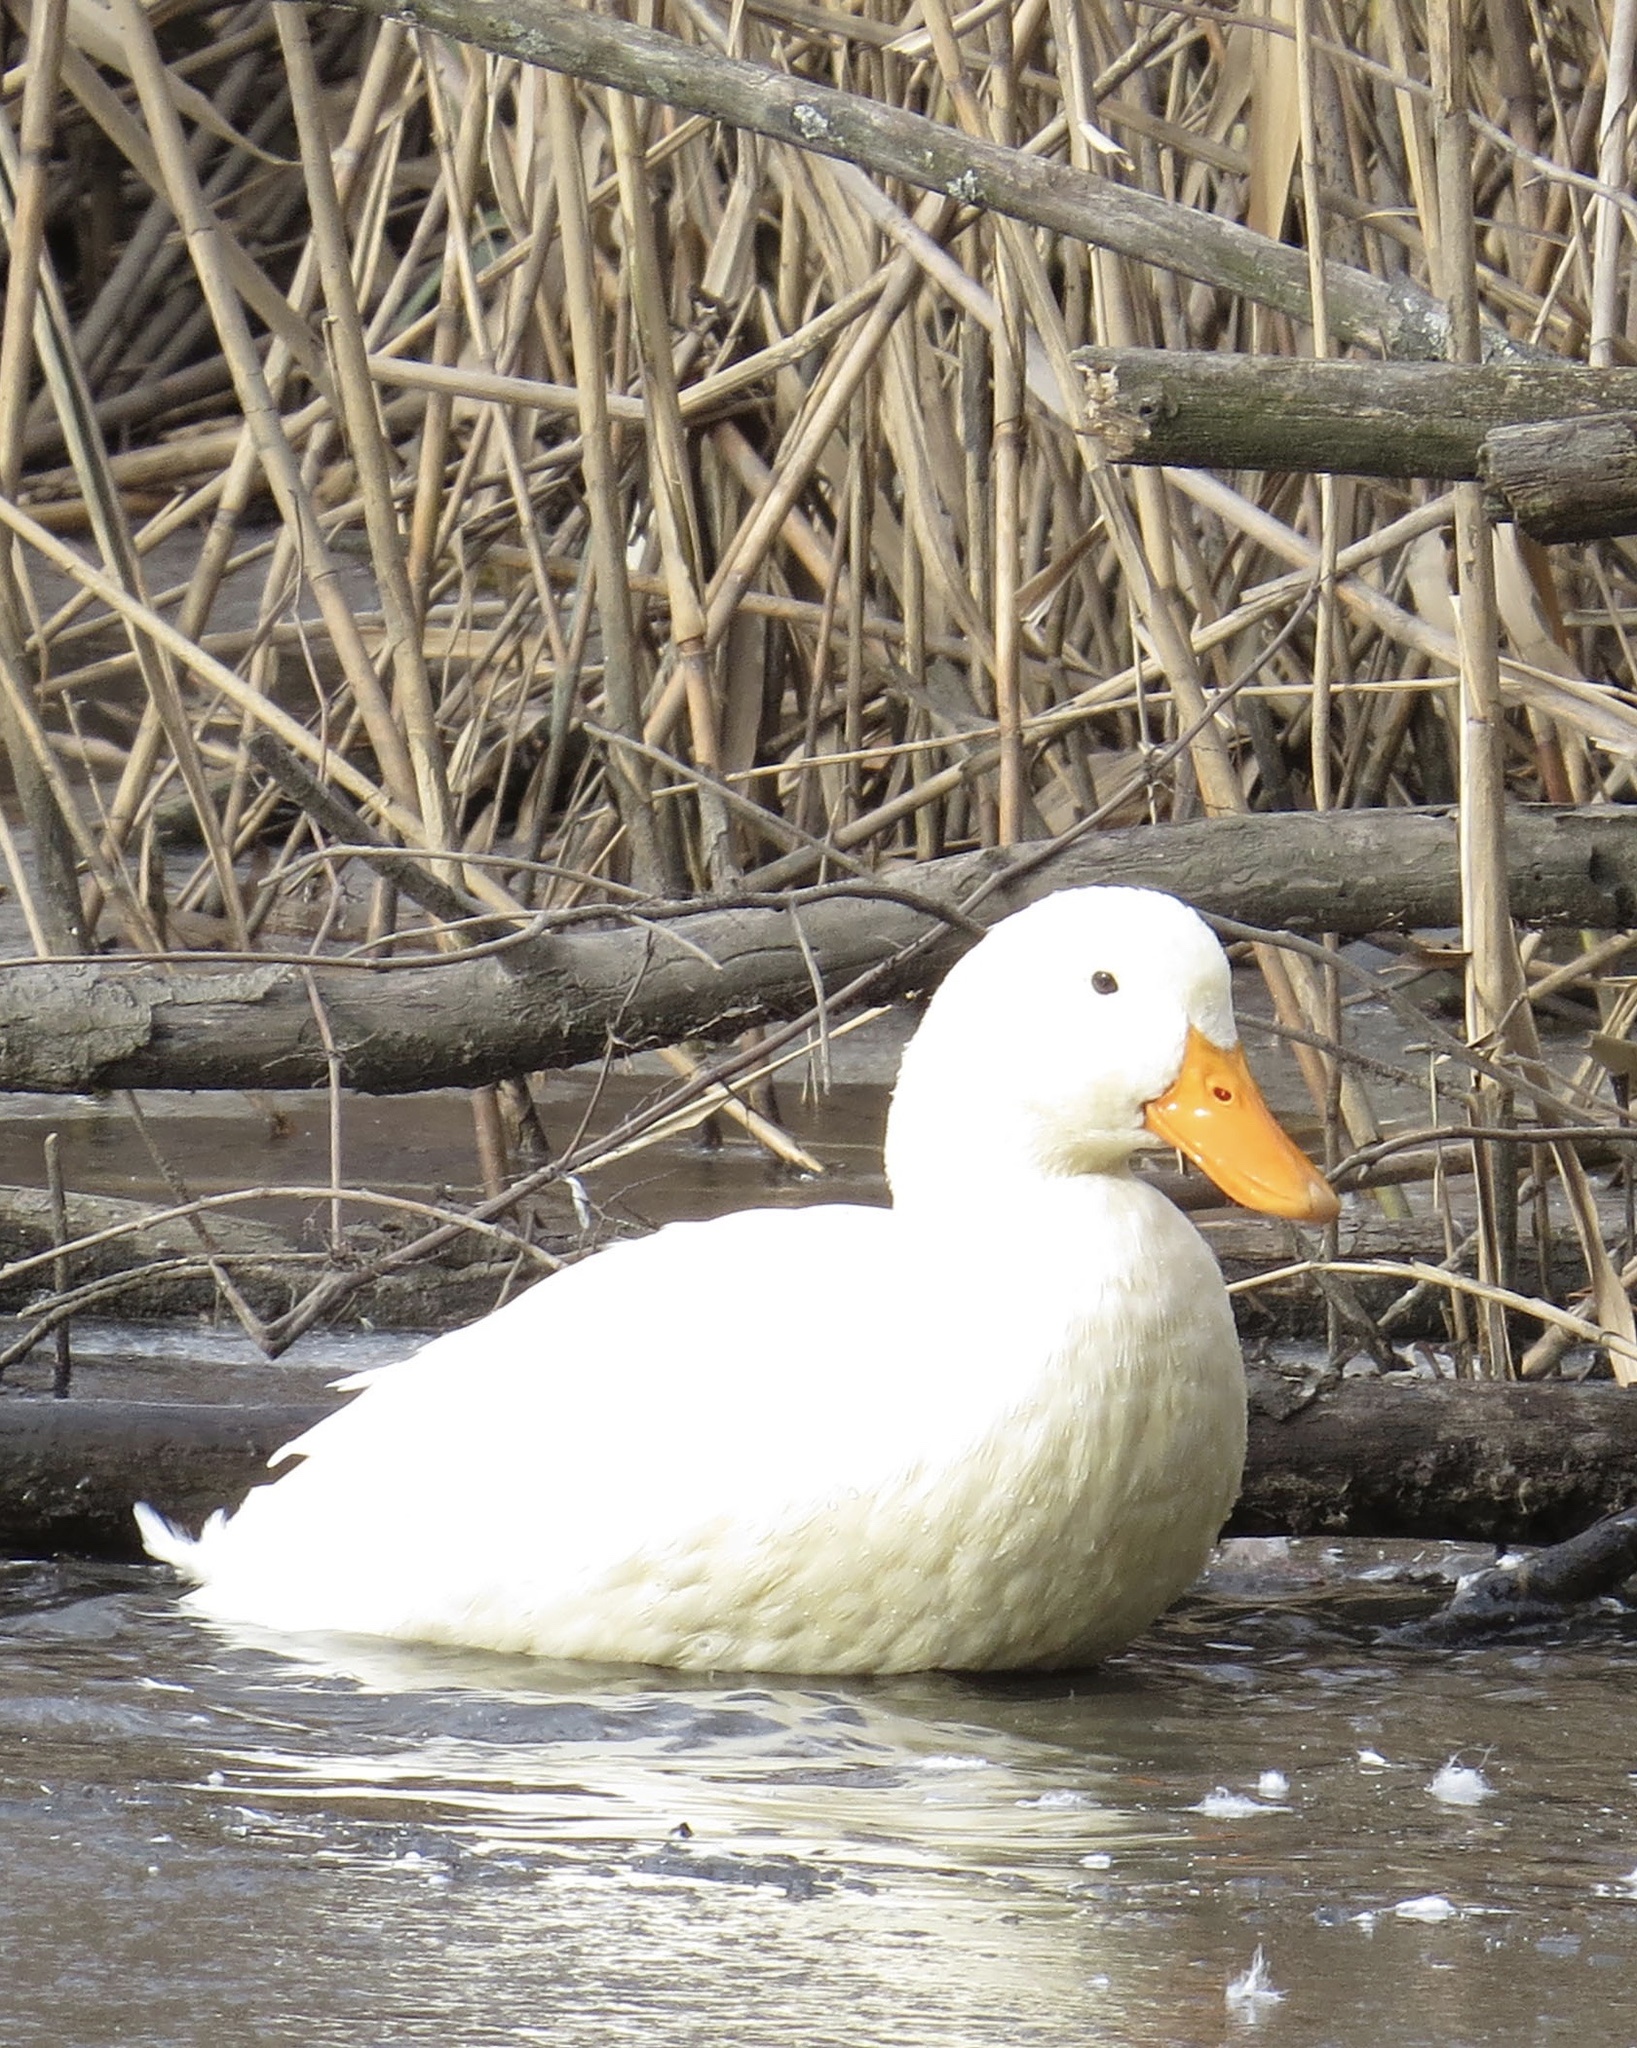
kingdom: Animalia
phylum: Chordata
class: Aves
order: Anseriformes
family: Anatidae
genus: Anas
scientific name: Anas platyrhynchos
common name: Mallard
